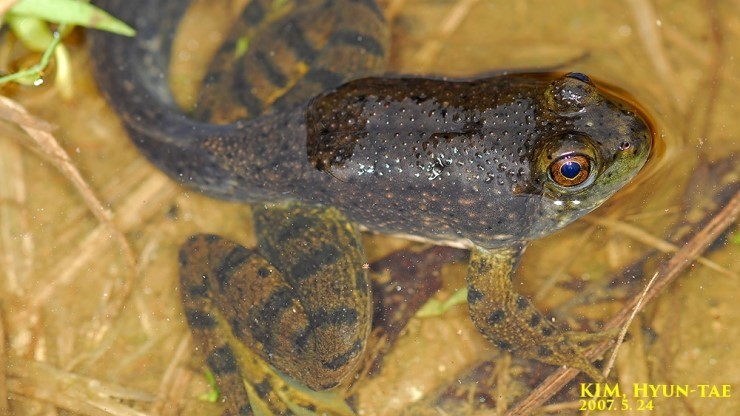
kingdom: Animalia
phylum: Chordata
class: Amphibia
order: Anura
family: Ranidae
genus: Lithobates
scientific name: Lithobates catesbeianus
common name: American bullfrog
